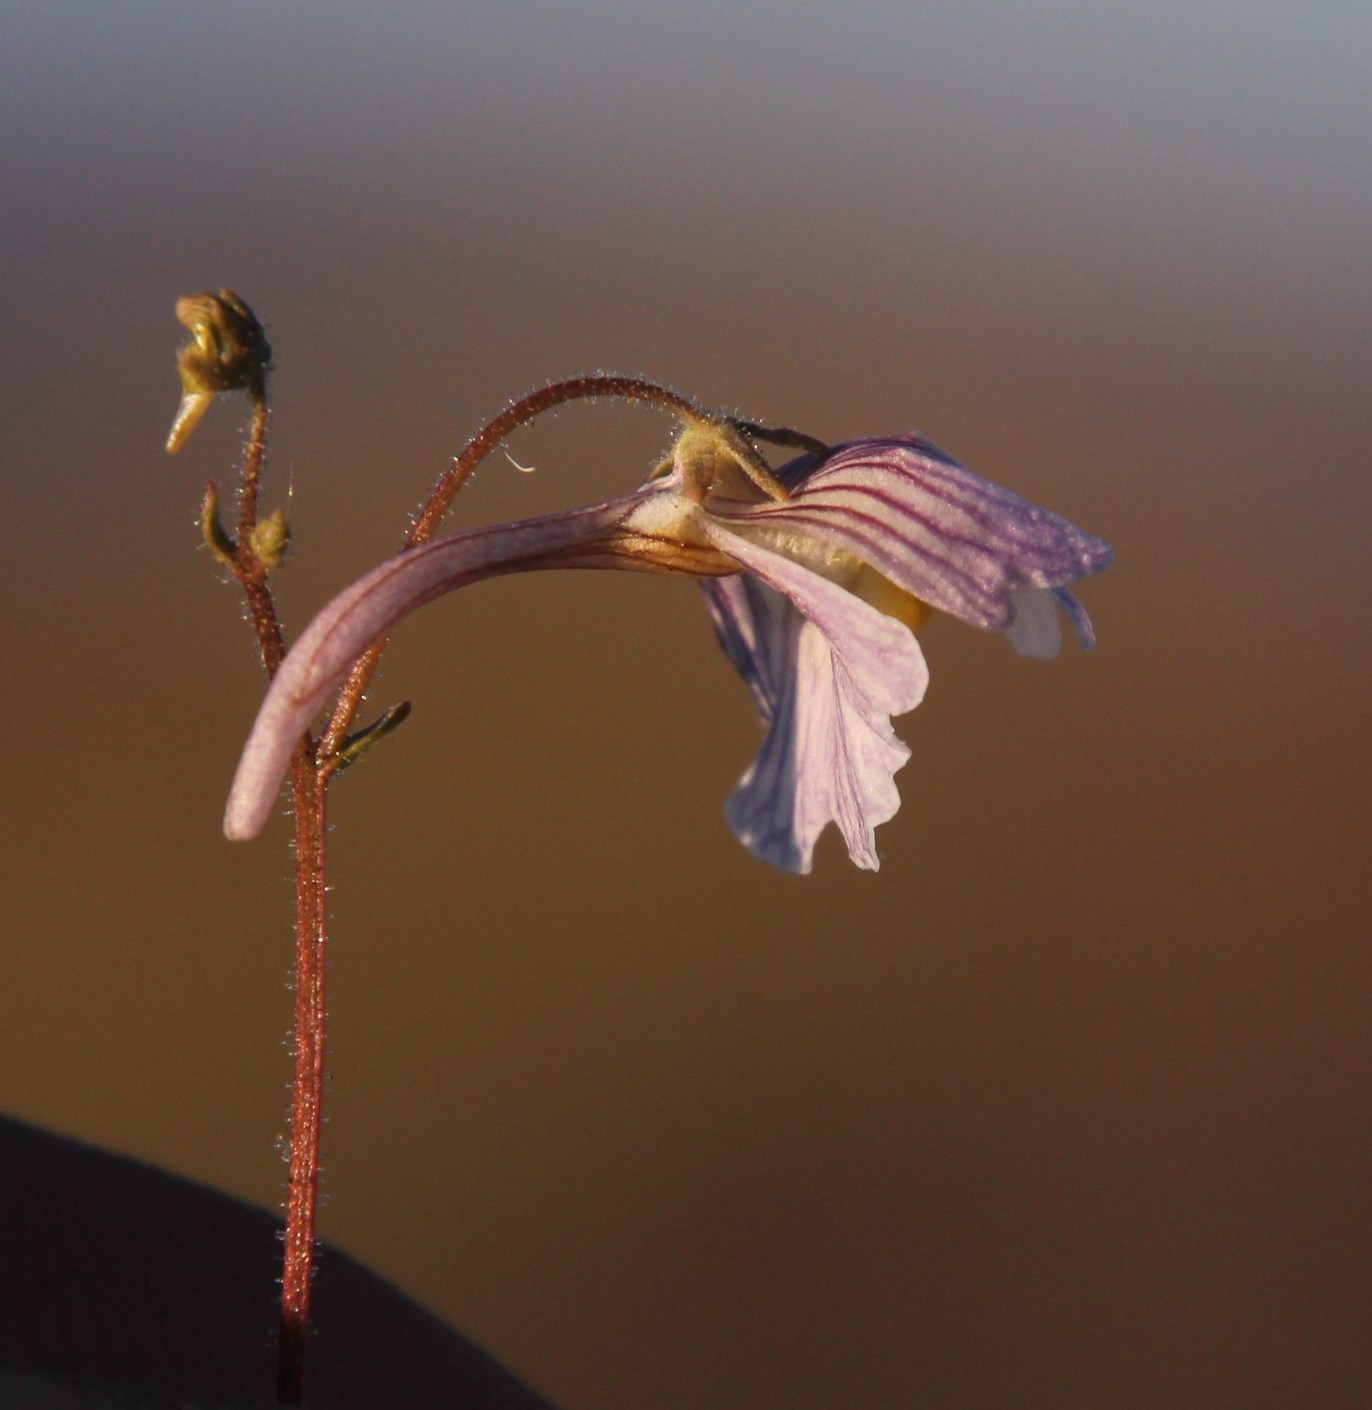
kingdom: Plantae
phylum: Tracheophyta
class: Magnoliopsida
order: Lamiales
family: Scrophulariaceae
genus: Nemesia
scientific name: Nemesia bicornis
